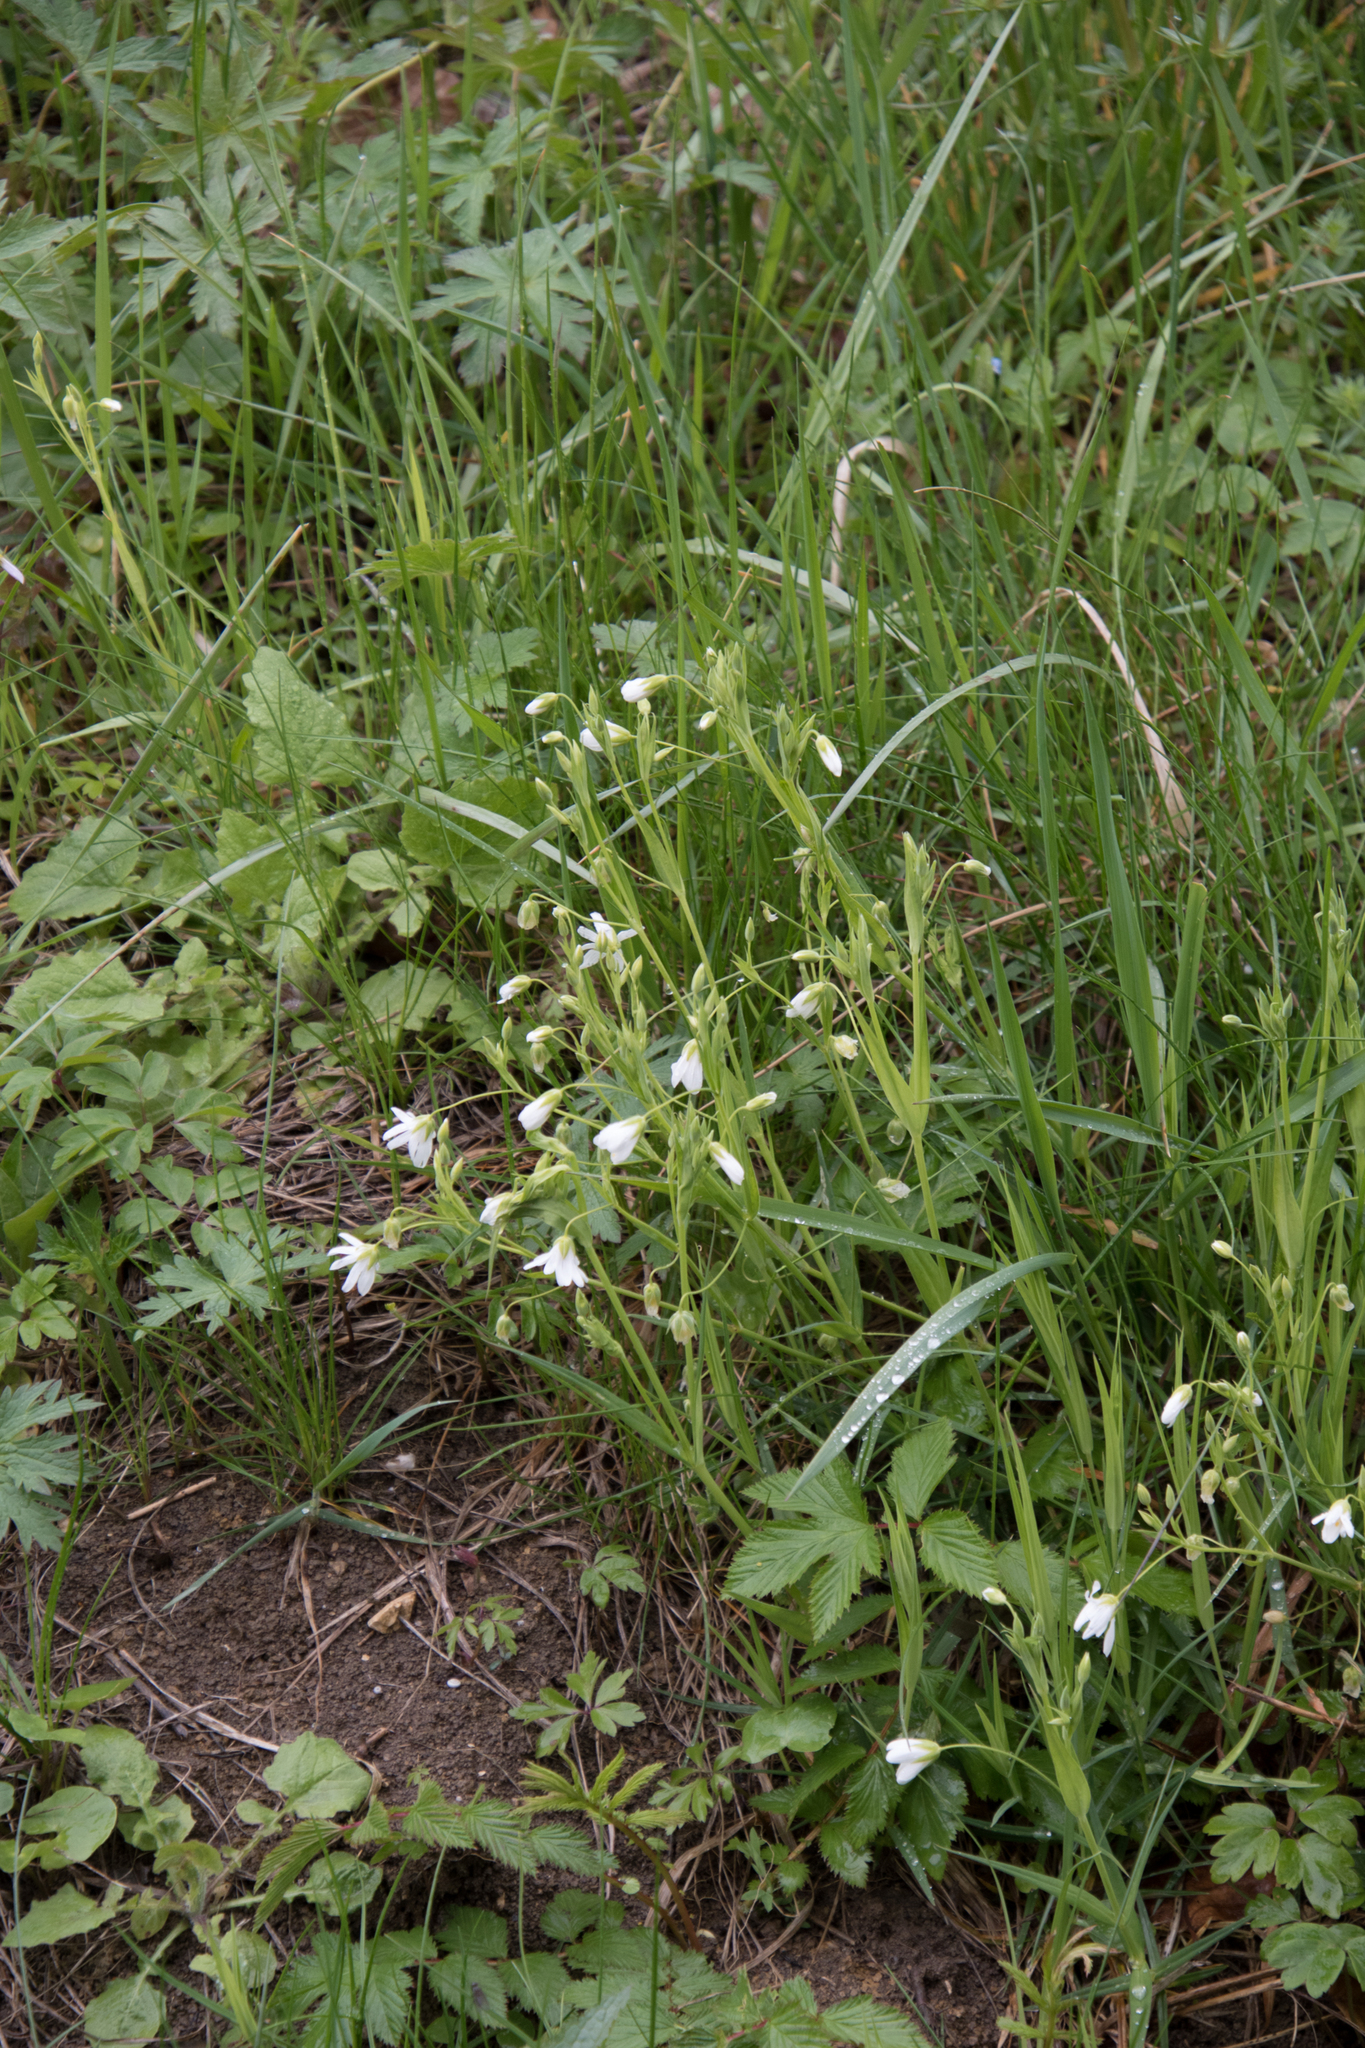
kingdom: Plantae
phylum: Tracheophyta
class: Magnoliopsida
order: Caryophyllales
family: Caryophyllaceae
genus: Rabelera
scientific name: Rabelera holostea
